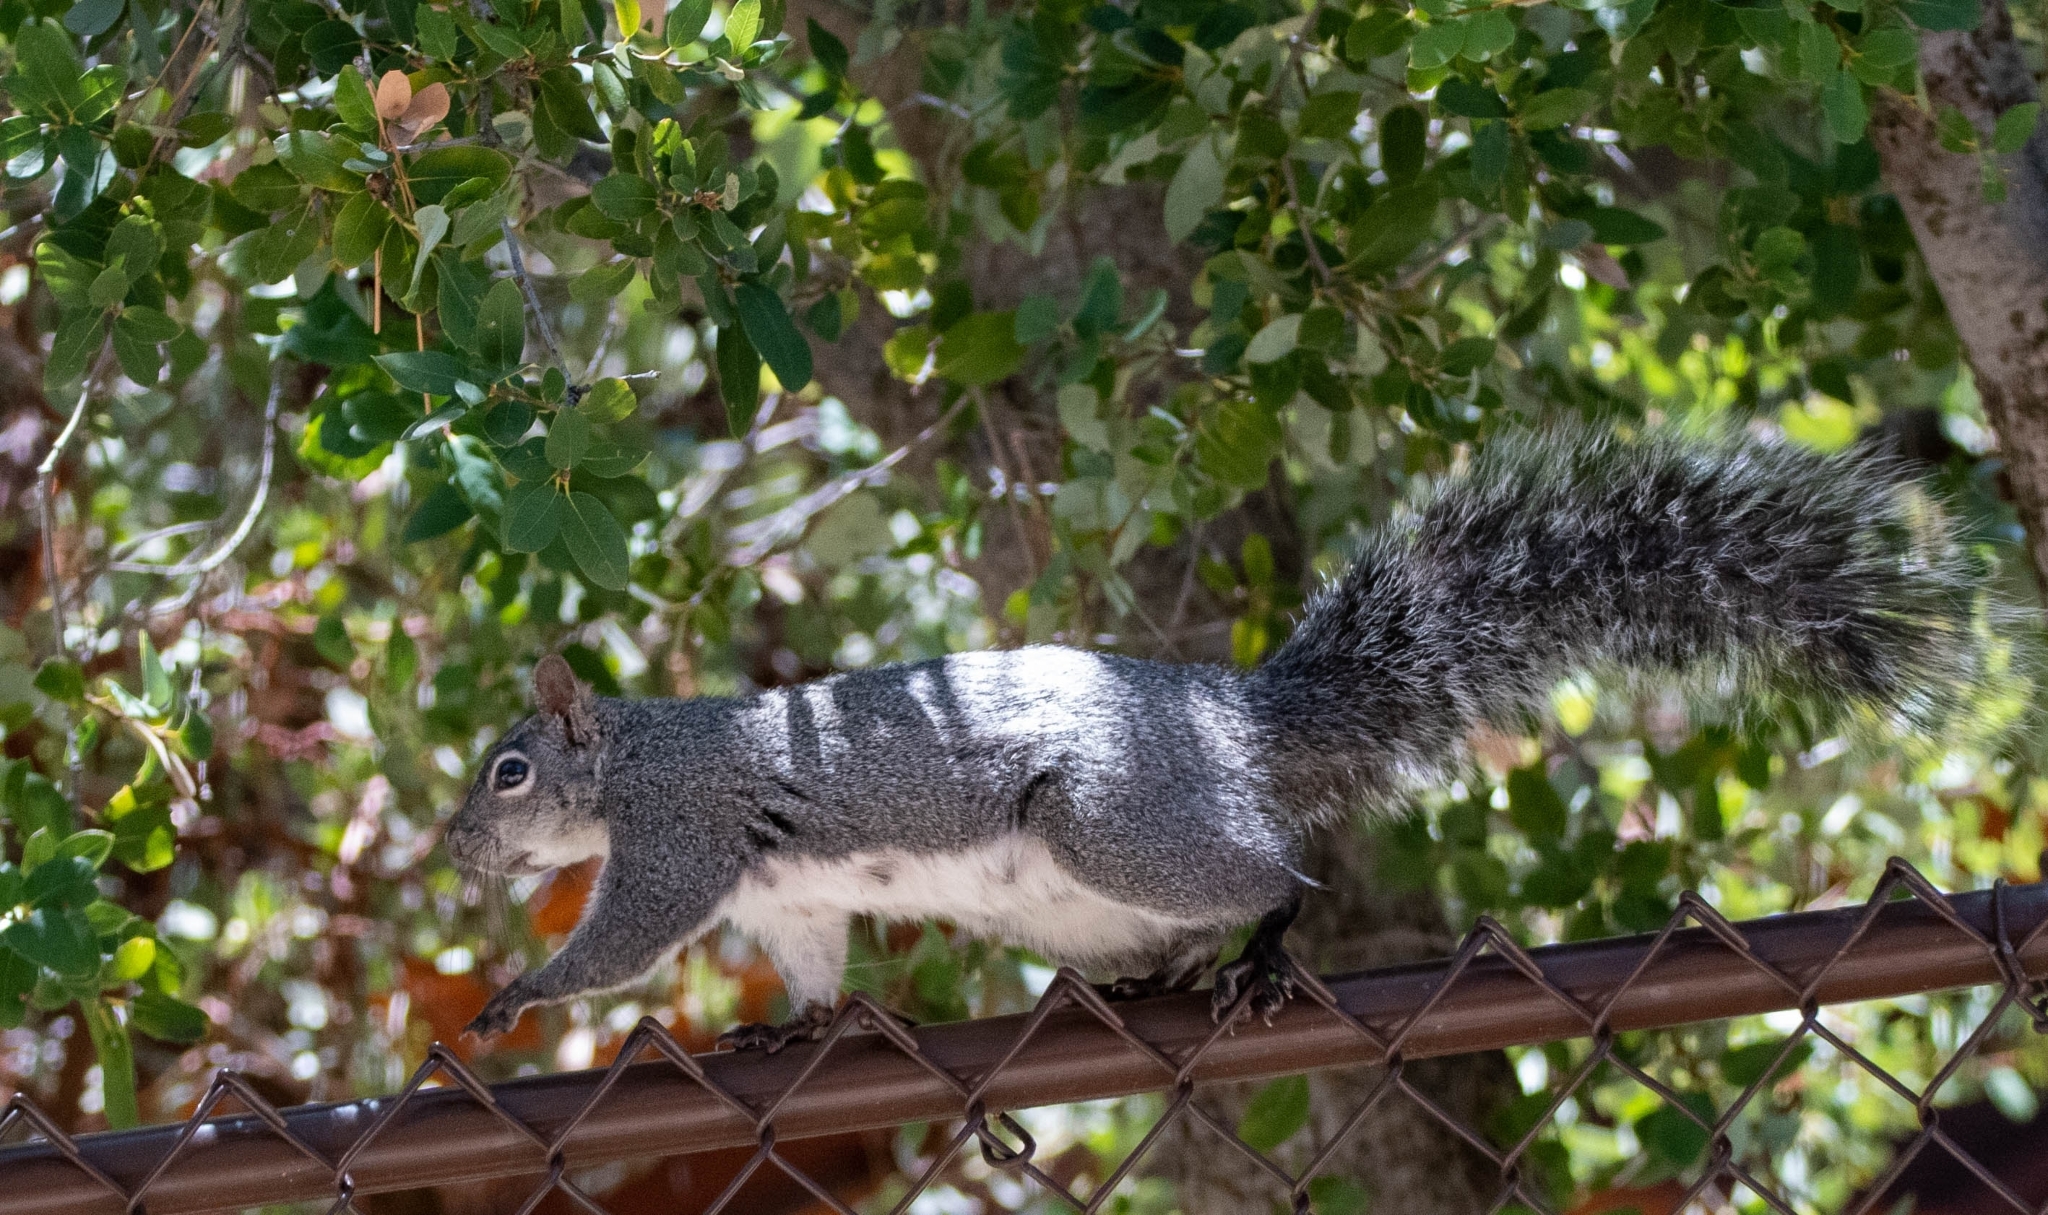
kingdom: Animalia
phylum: Chordata
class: Mammalia
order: Rodentia
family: Sciuridae
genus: Sciurus
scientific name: Sciurus griseus
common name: Western gray squirrel
